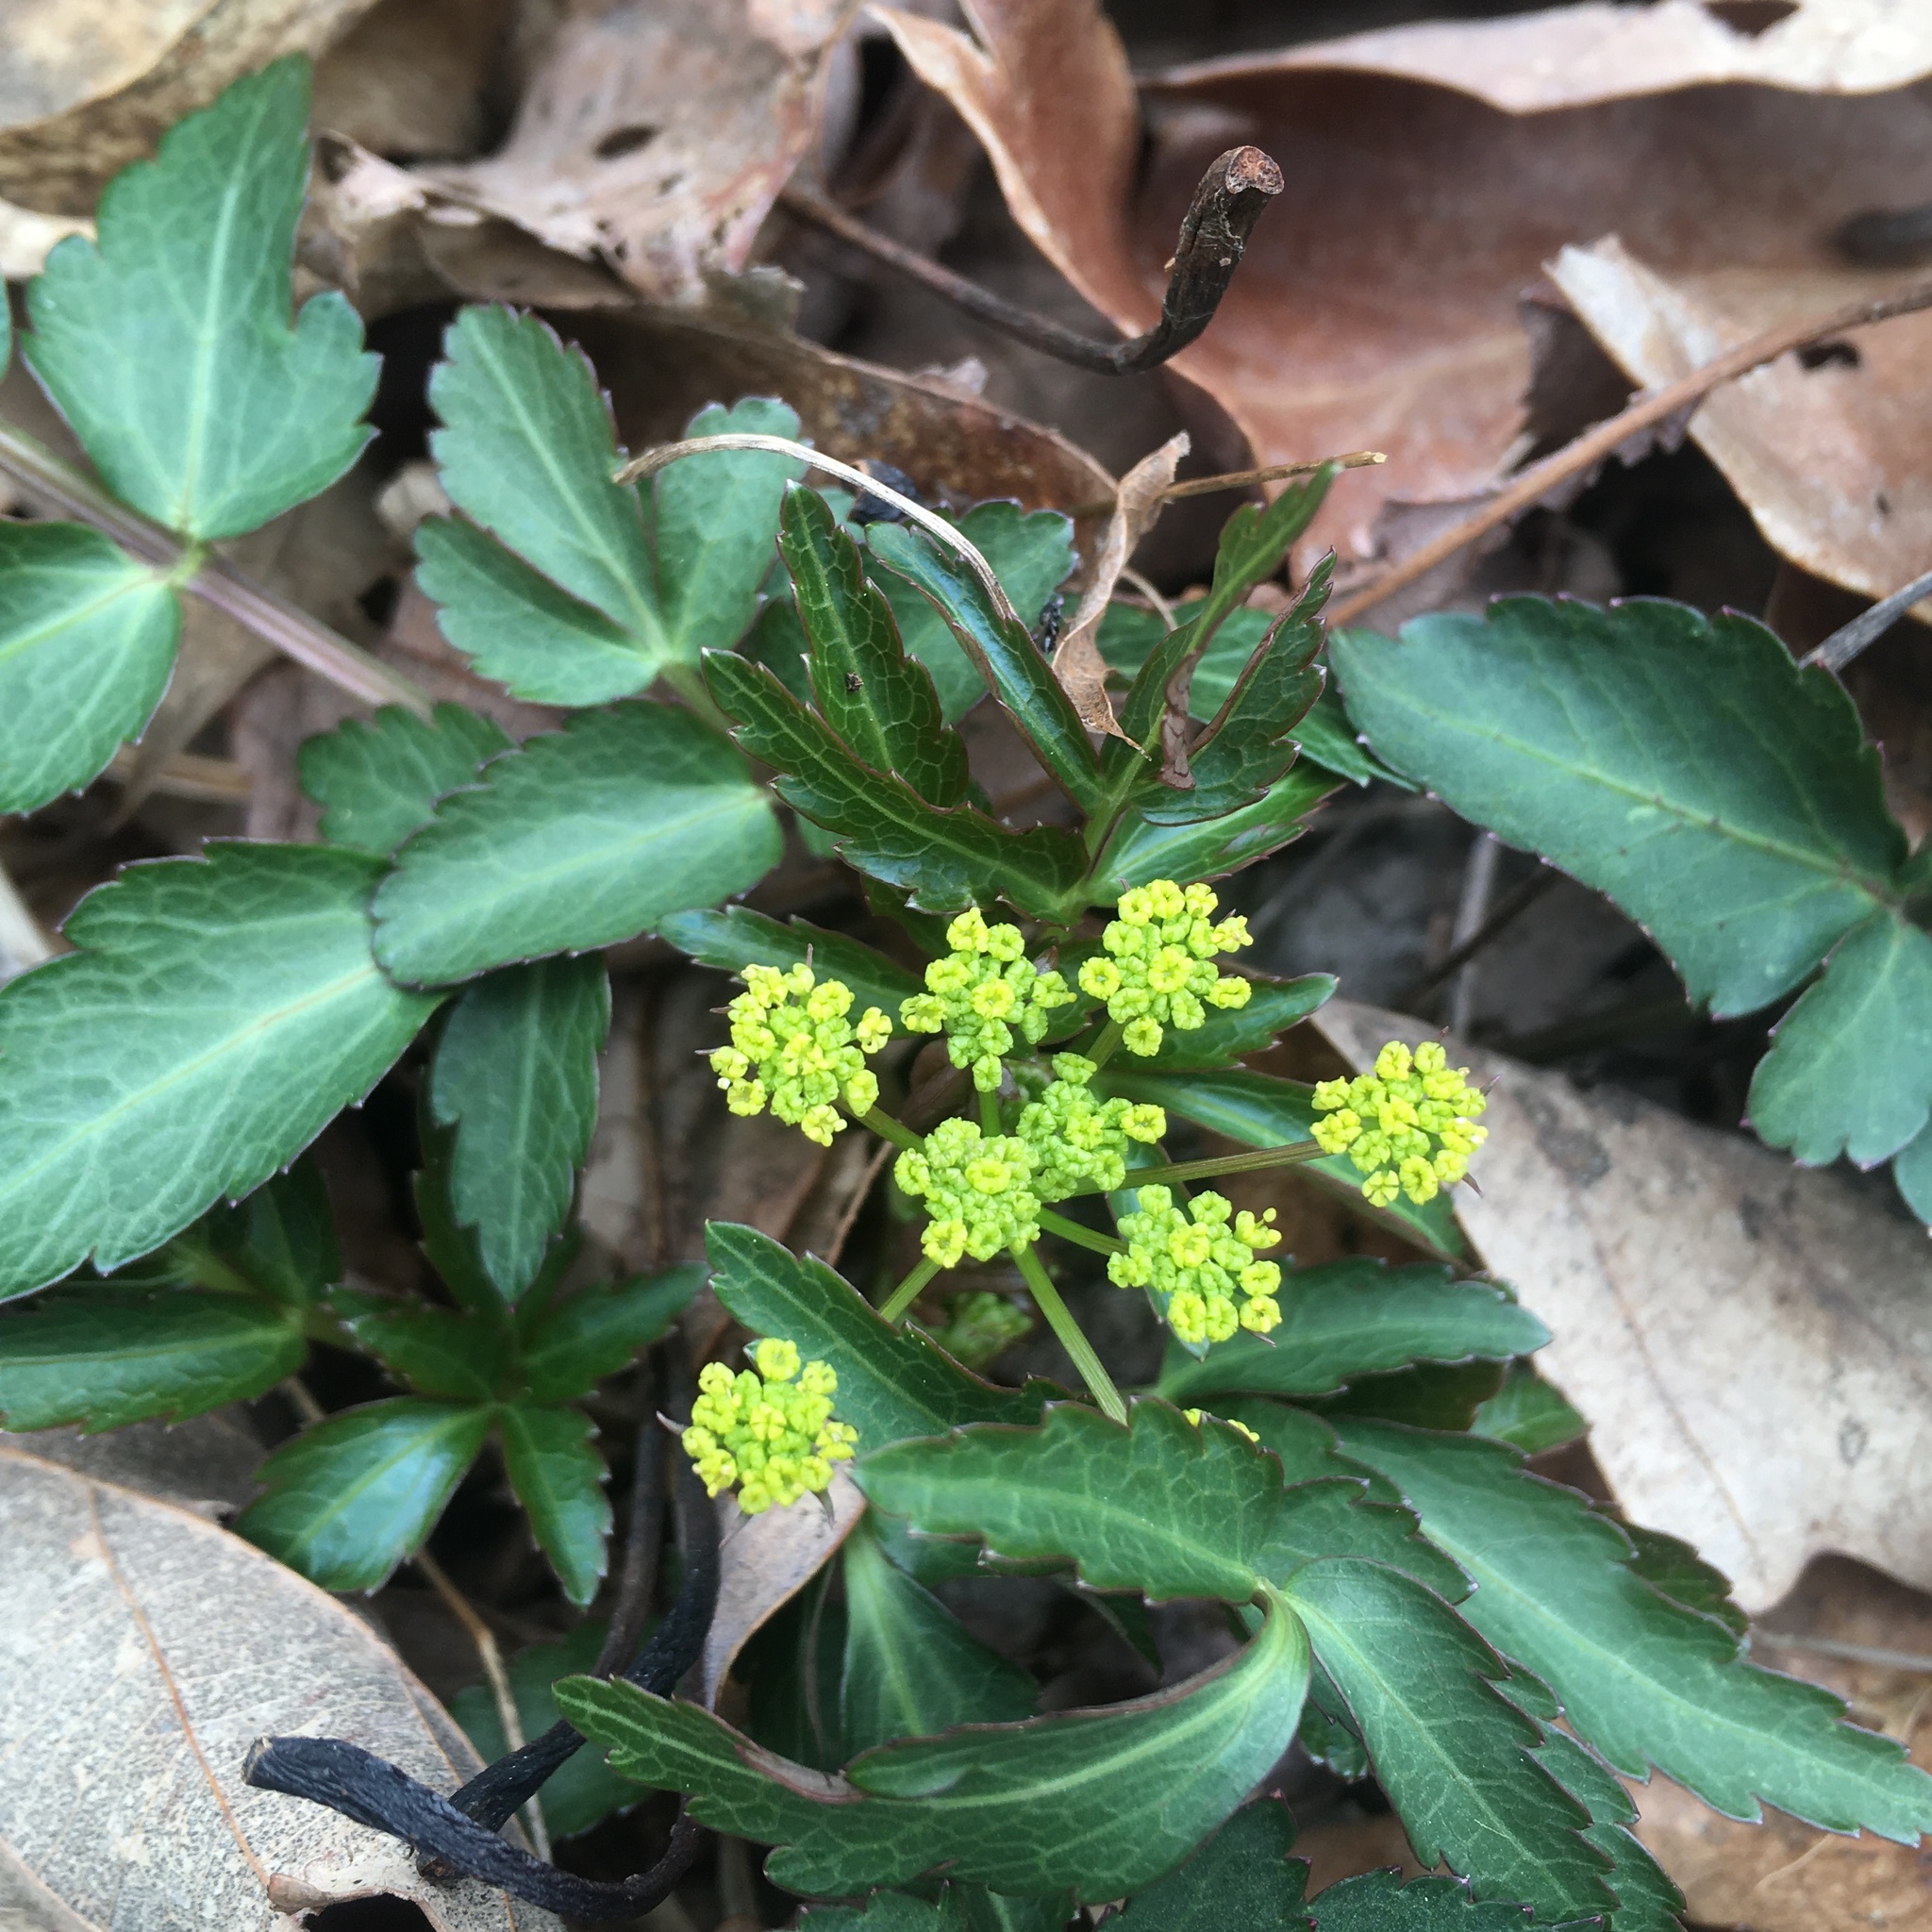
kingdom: Plantae
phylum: Tracheophyta
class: Magnoliopsida
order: Apiales
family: Apiaceae
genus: Zizia
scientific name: Zizia aurea
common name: Golden alexanders
